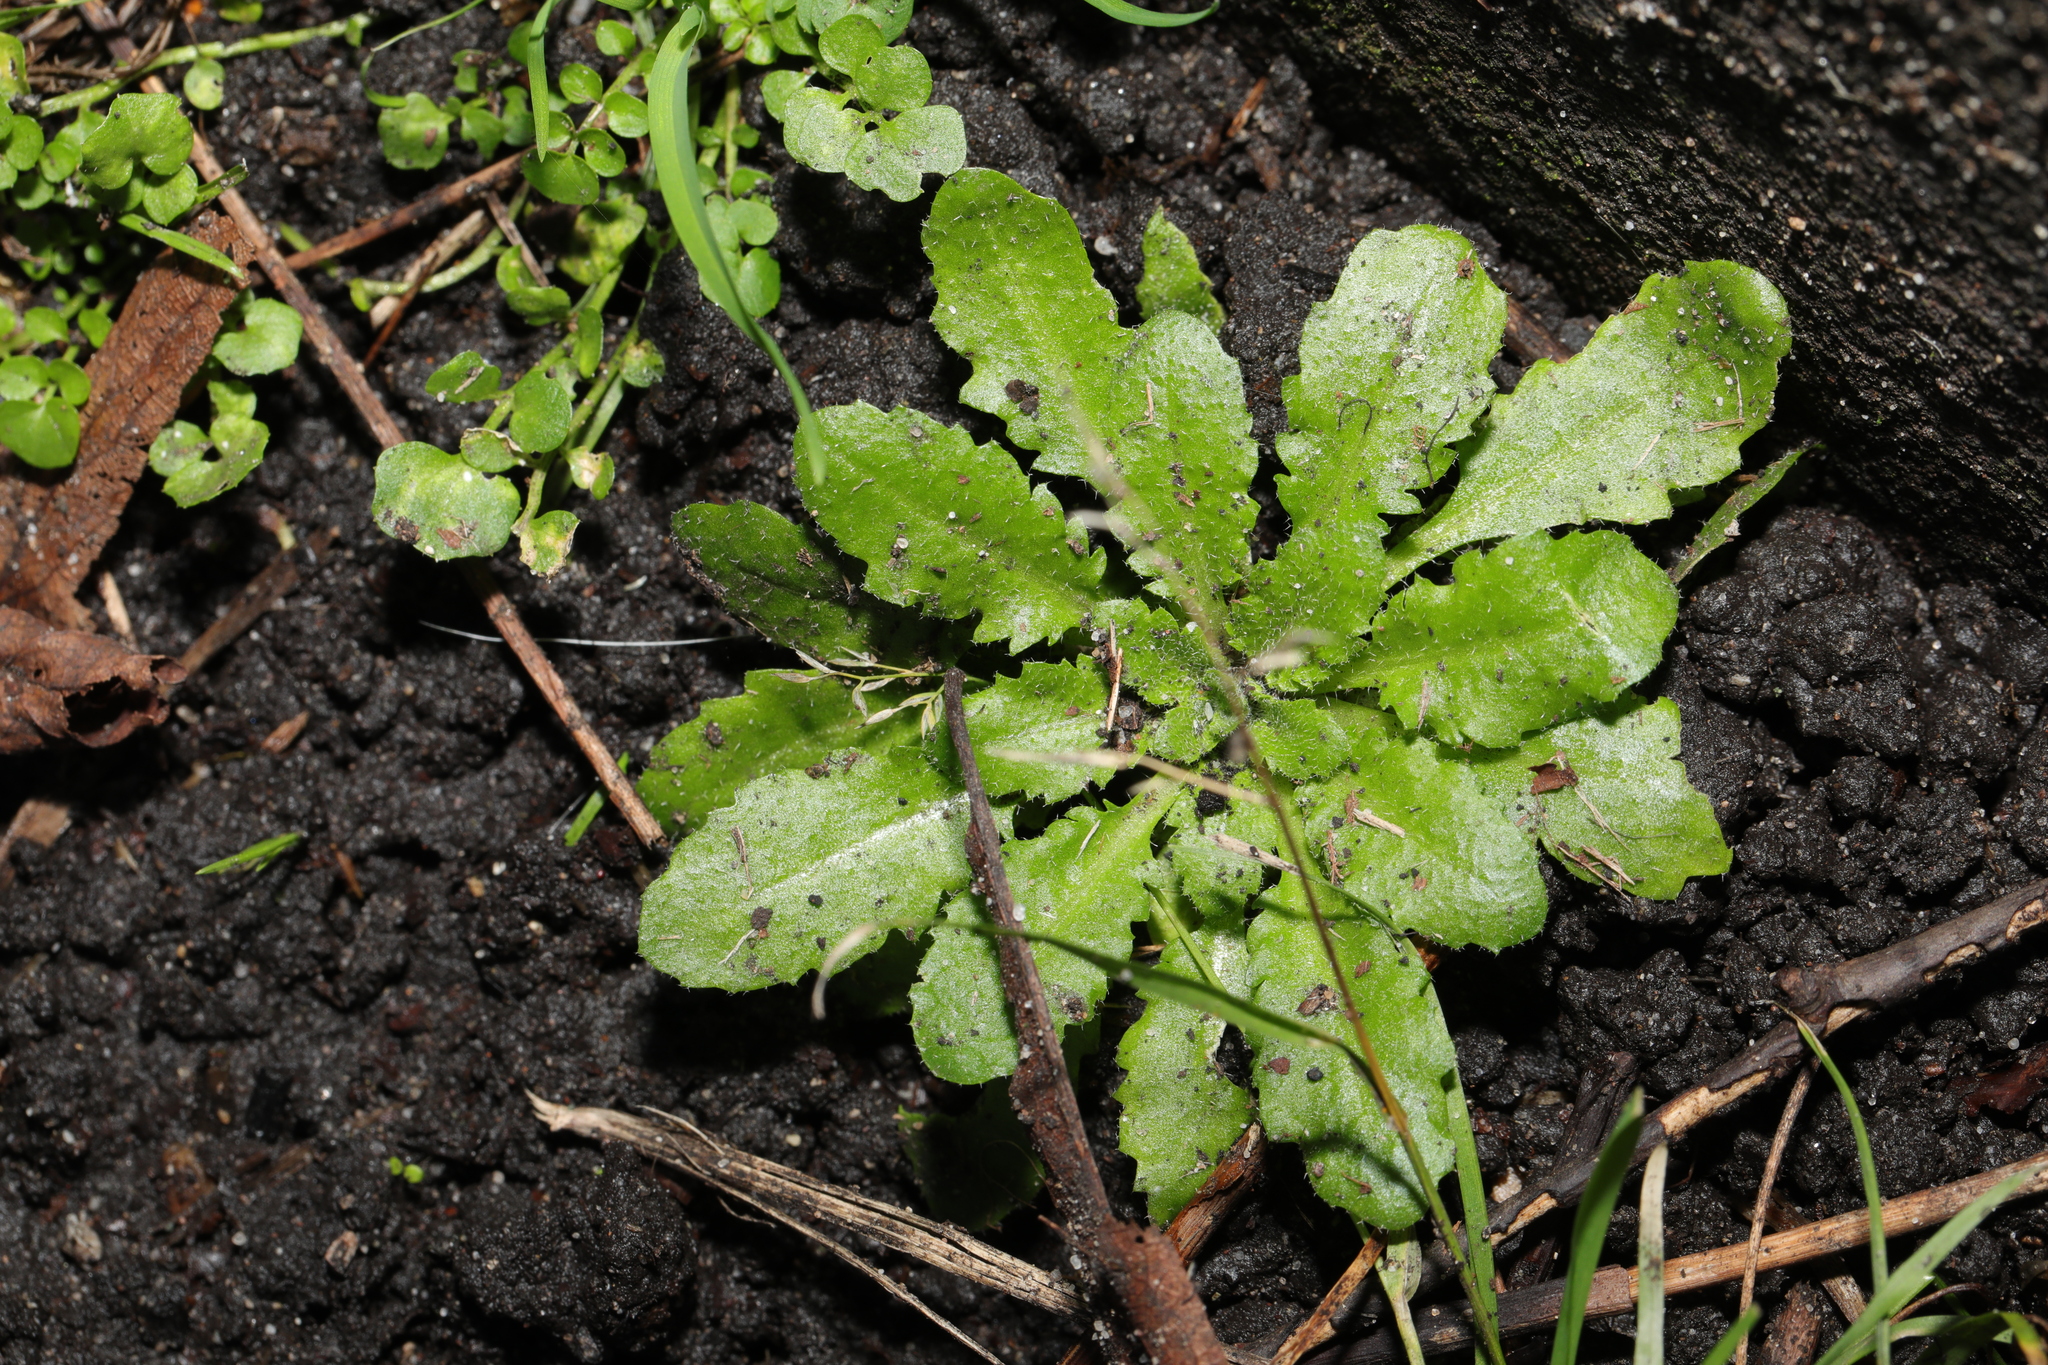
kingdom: Plantae
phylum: Tracheophyta
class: Magnoliopsida
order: Brassicales
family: Brassicaceae
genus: Arabidopsis
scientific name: Arabidopsis thaliana
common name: Thale cress
